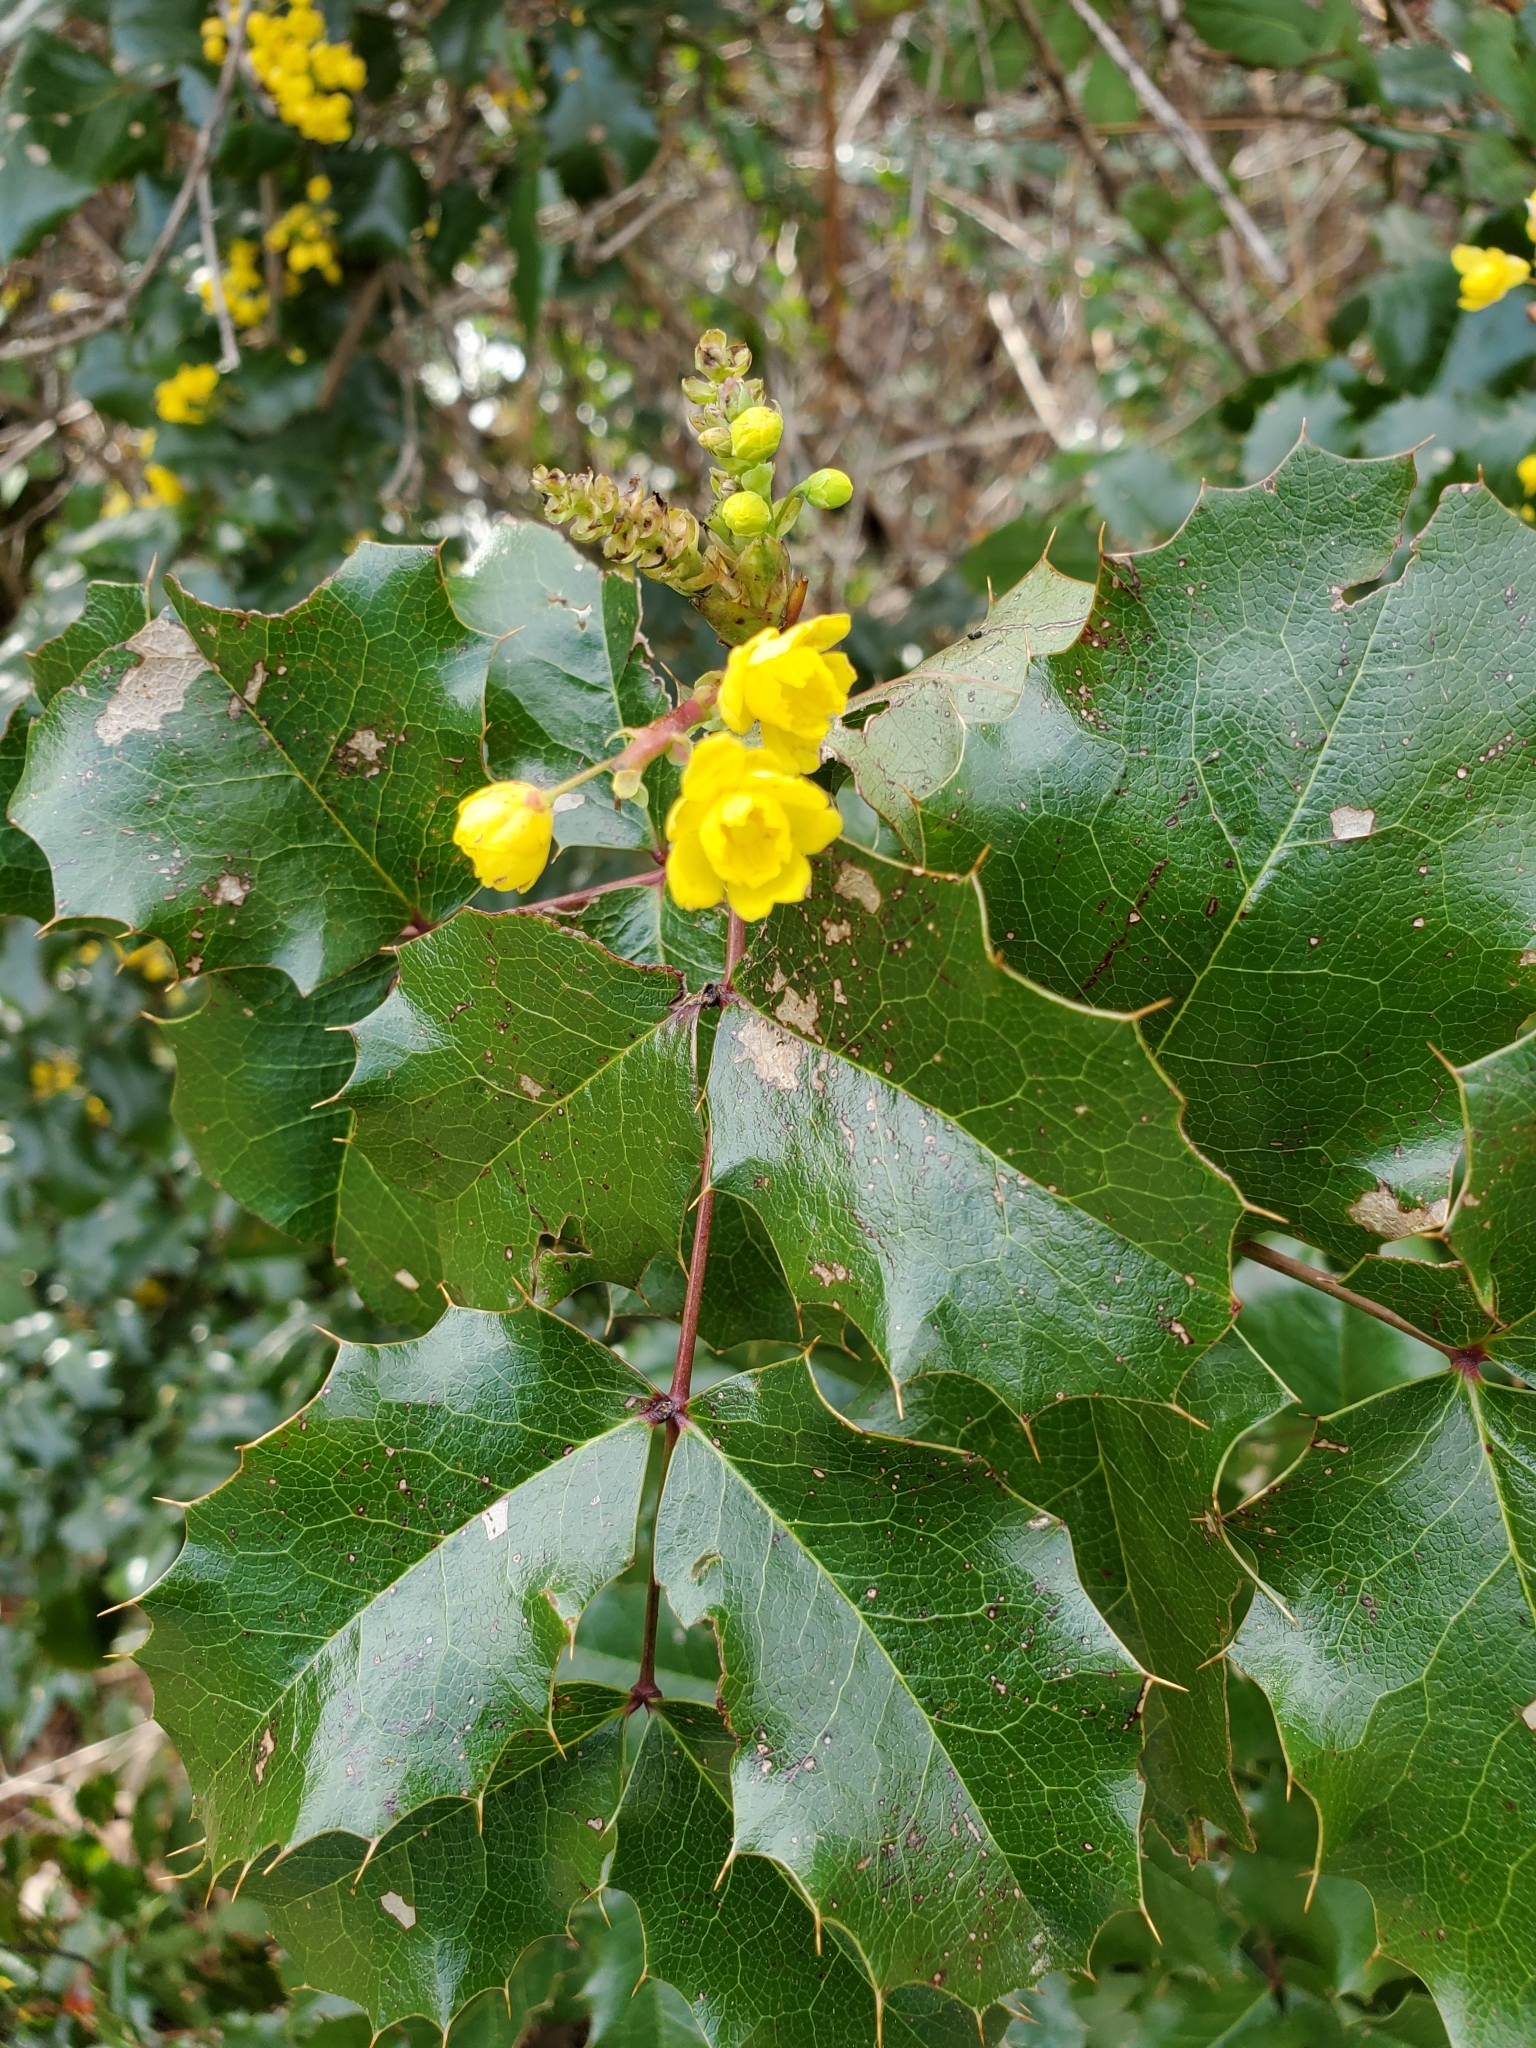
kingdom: Plantae
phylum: Tracheophyta
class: Magnoliopsida
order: Ranunculales
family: Berberidaceae
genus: Mahonia
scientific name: Mahonia aquifolium
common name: Oregon-grape
